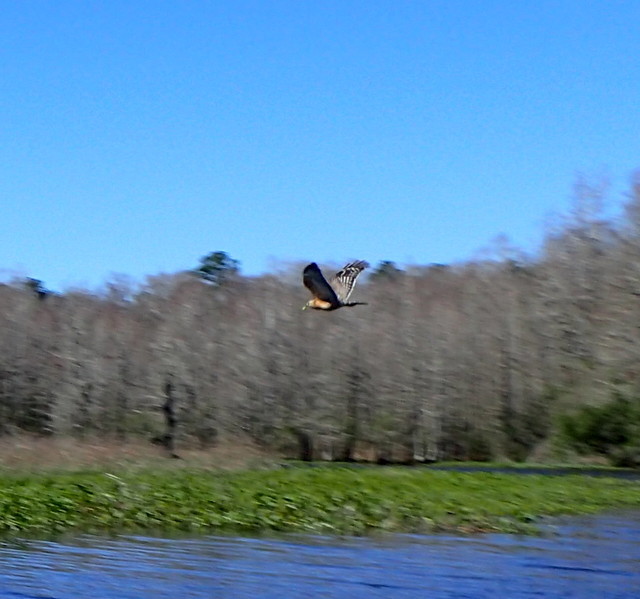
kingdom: Animalia
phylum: Chordata
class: Aves
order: Accipitriformes
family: Accipitridae
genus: Buteo
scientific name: Buteo lineatus
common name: Red-shouldered hawk
